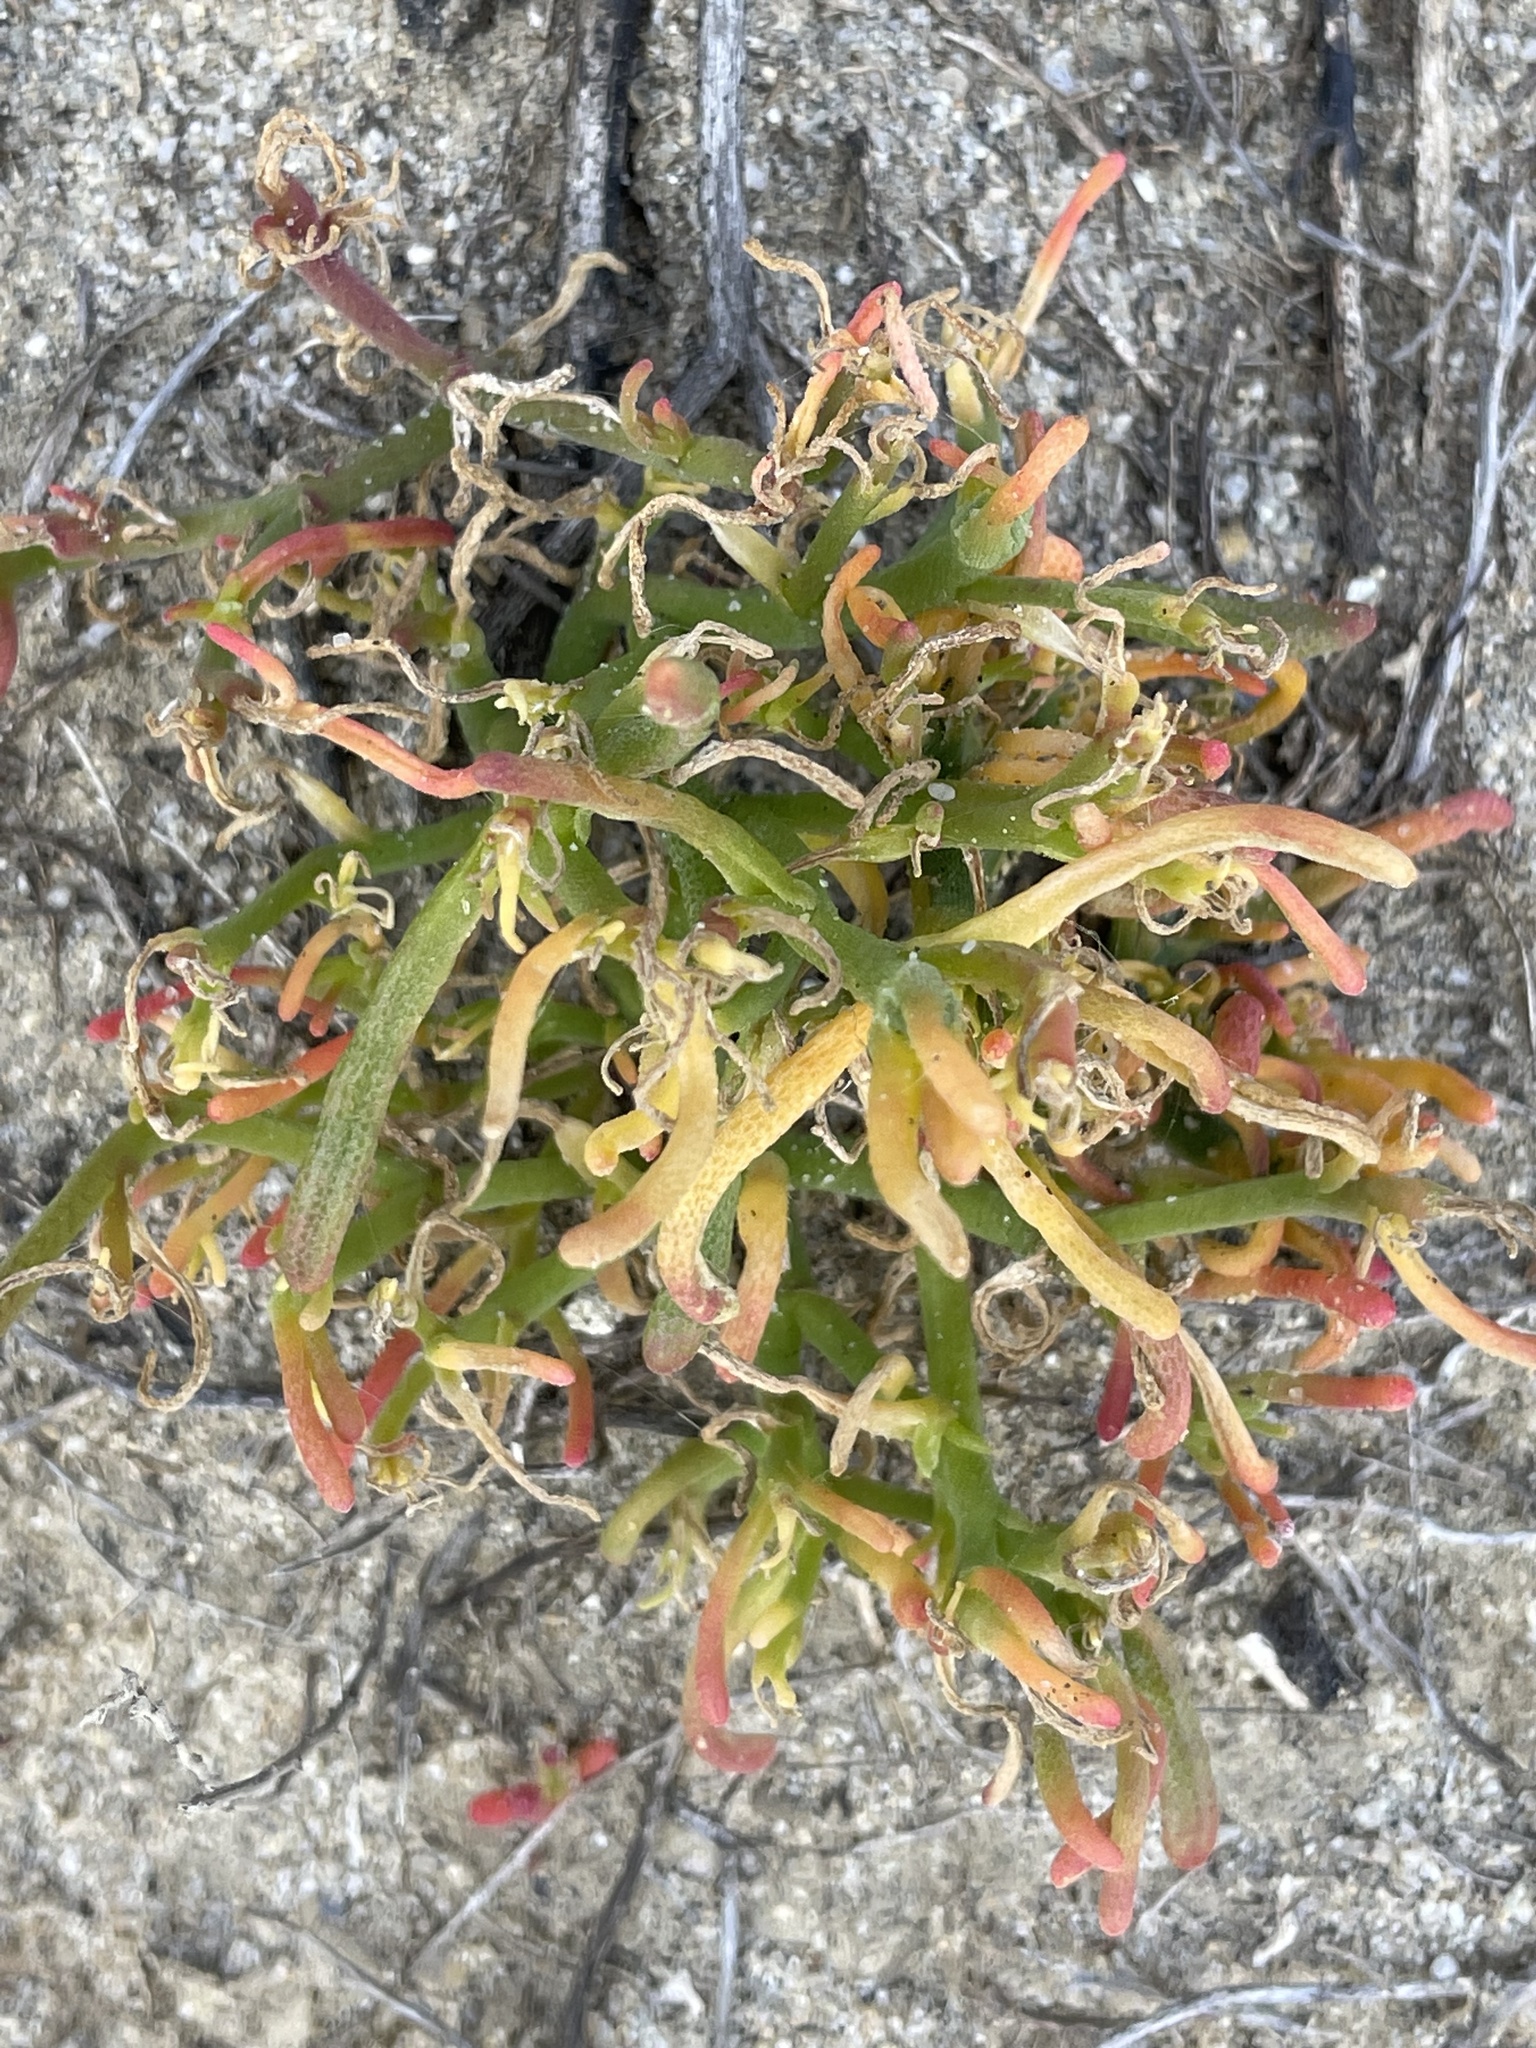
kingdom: Plantae
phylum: Tracheophyta
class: Magnoliopsida
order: Caryophyllales
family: Aizoaceae
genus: Mesembryanthemum
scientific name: Mesembryanthemum nodiflorum
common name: Slenderleaf iceplant
